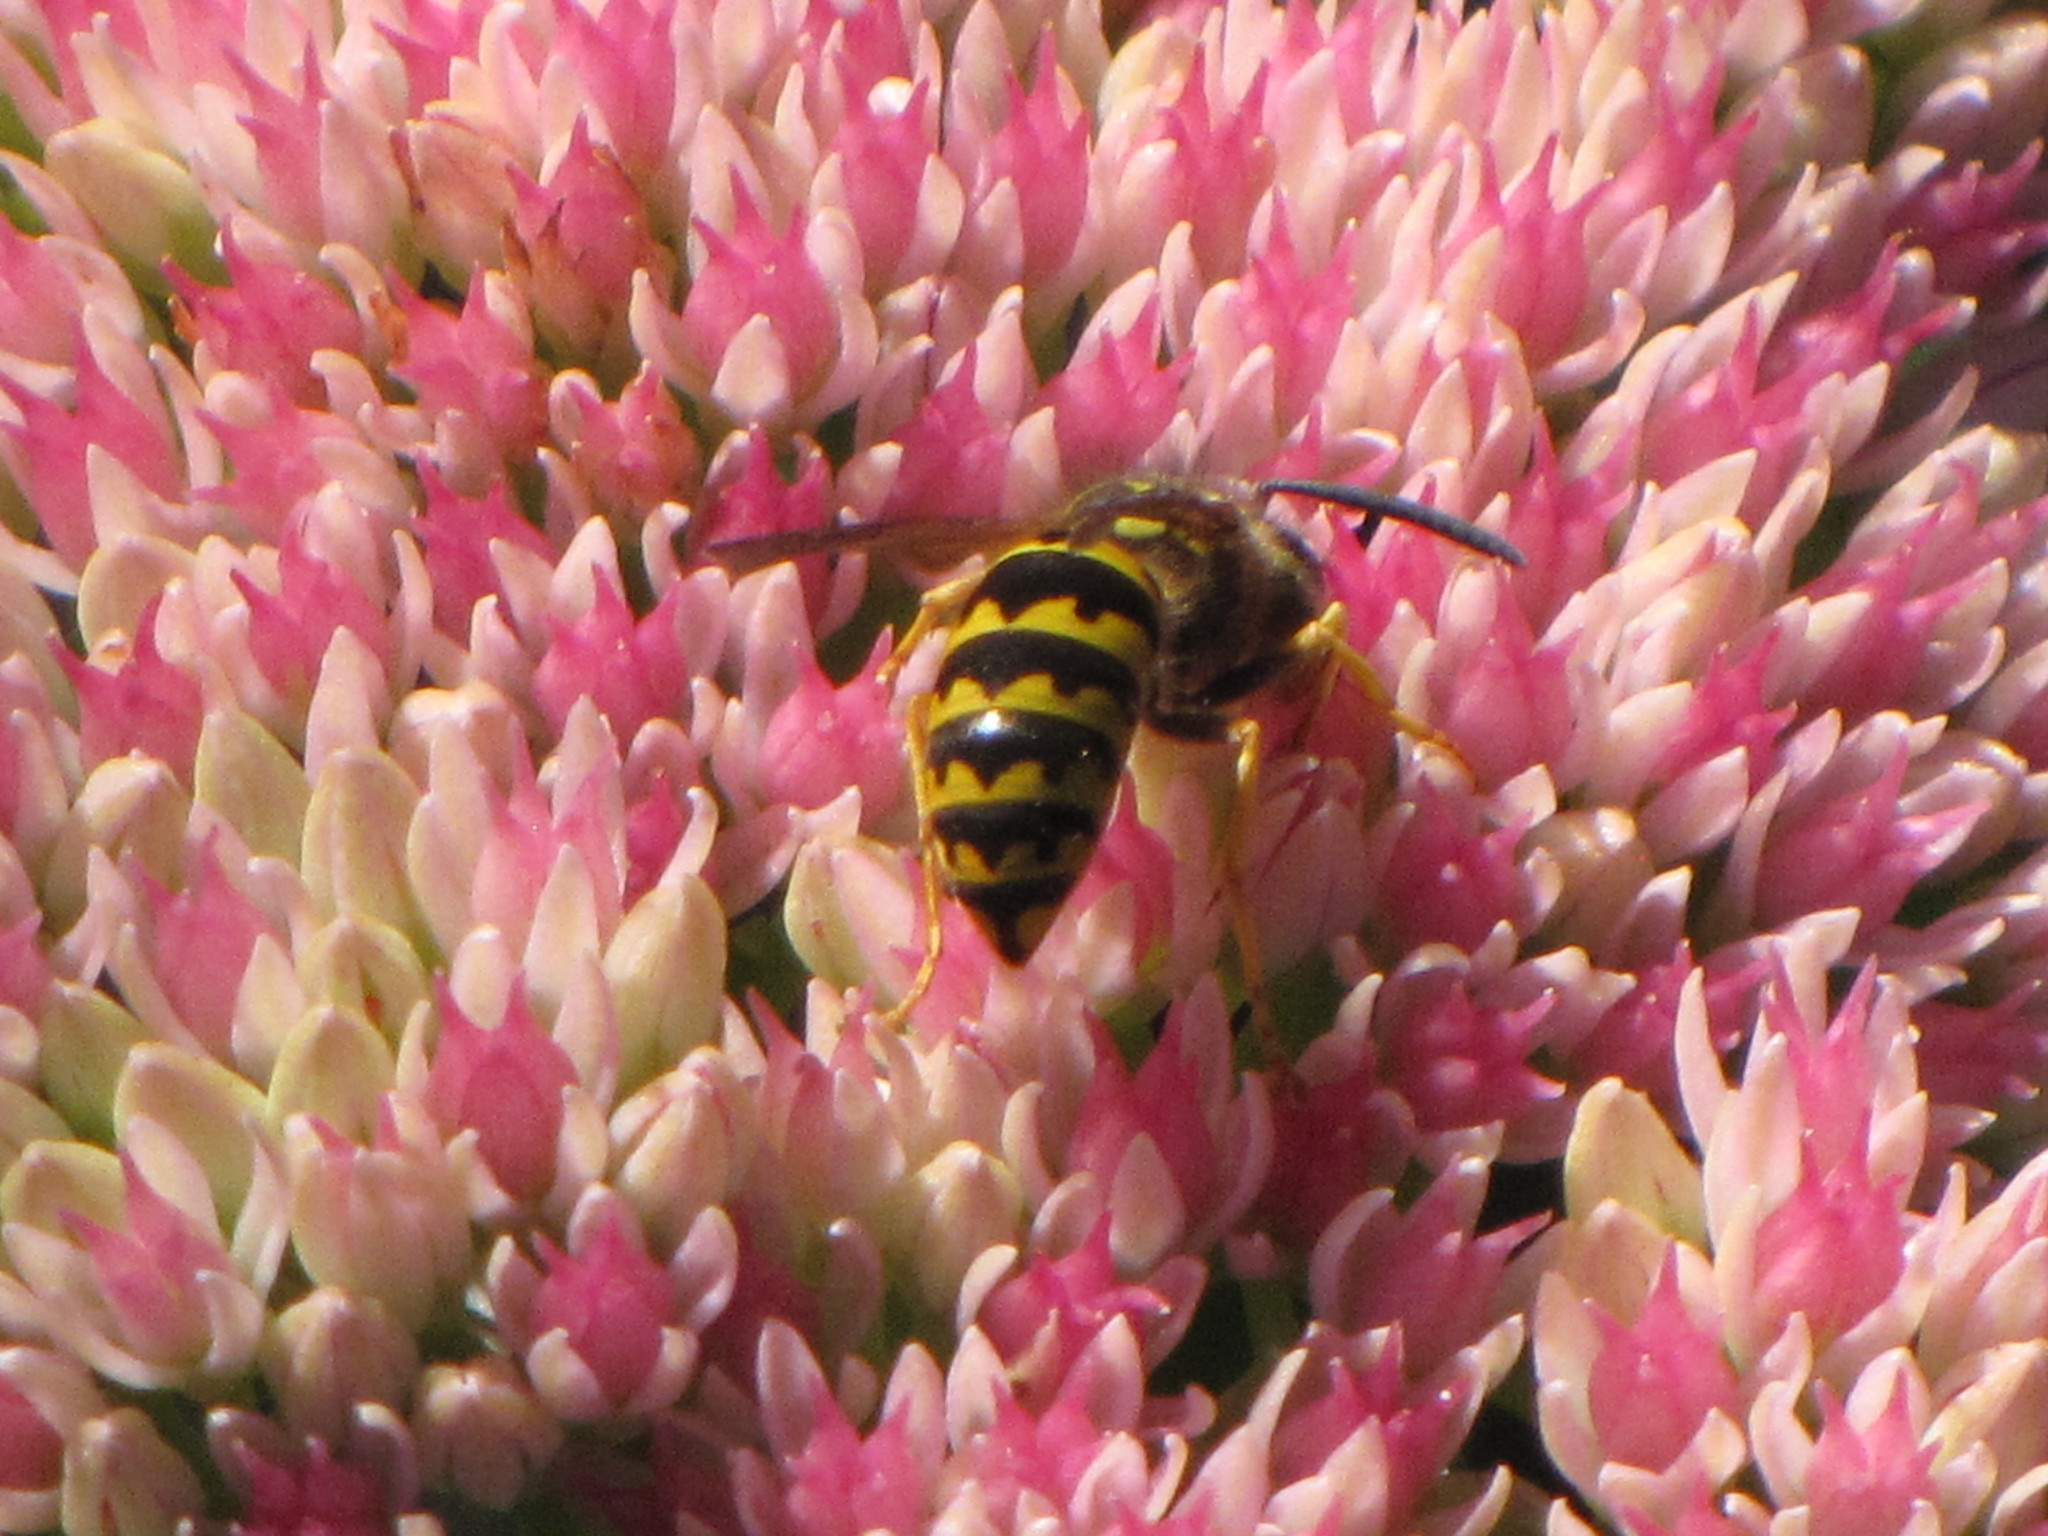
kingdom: Animalia
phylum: Arthropoda
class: Insecta
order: Hymenoptera
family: Vespidae
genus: Vespula
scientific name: Vespula pensylvanica
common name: Western yellowjacket
